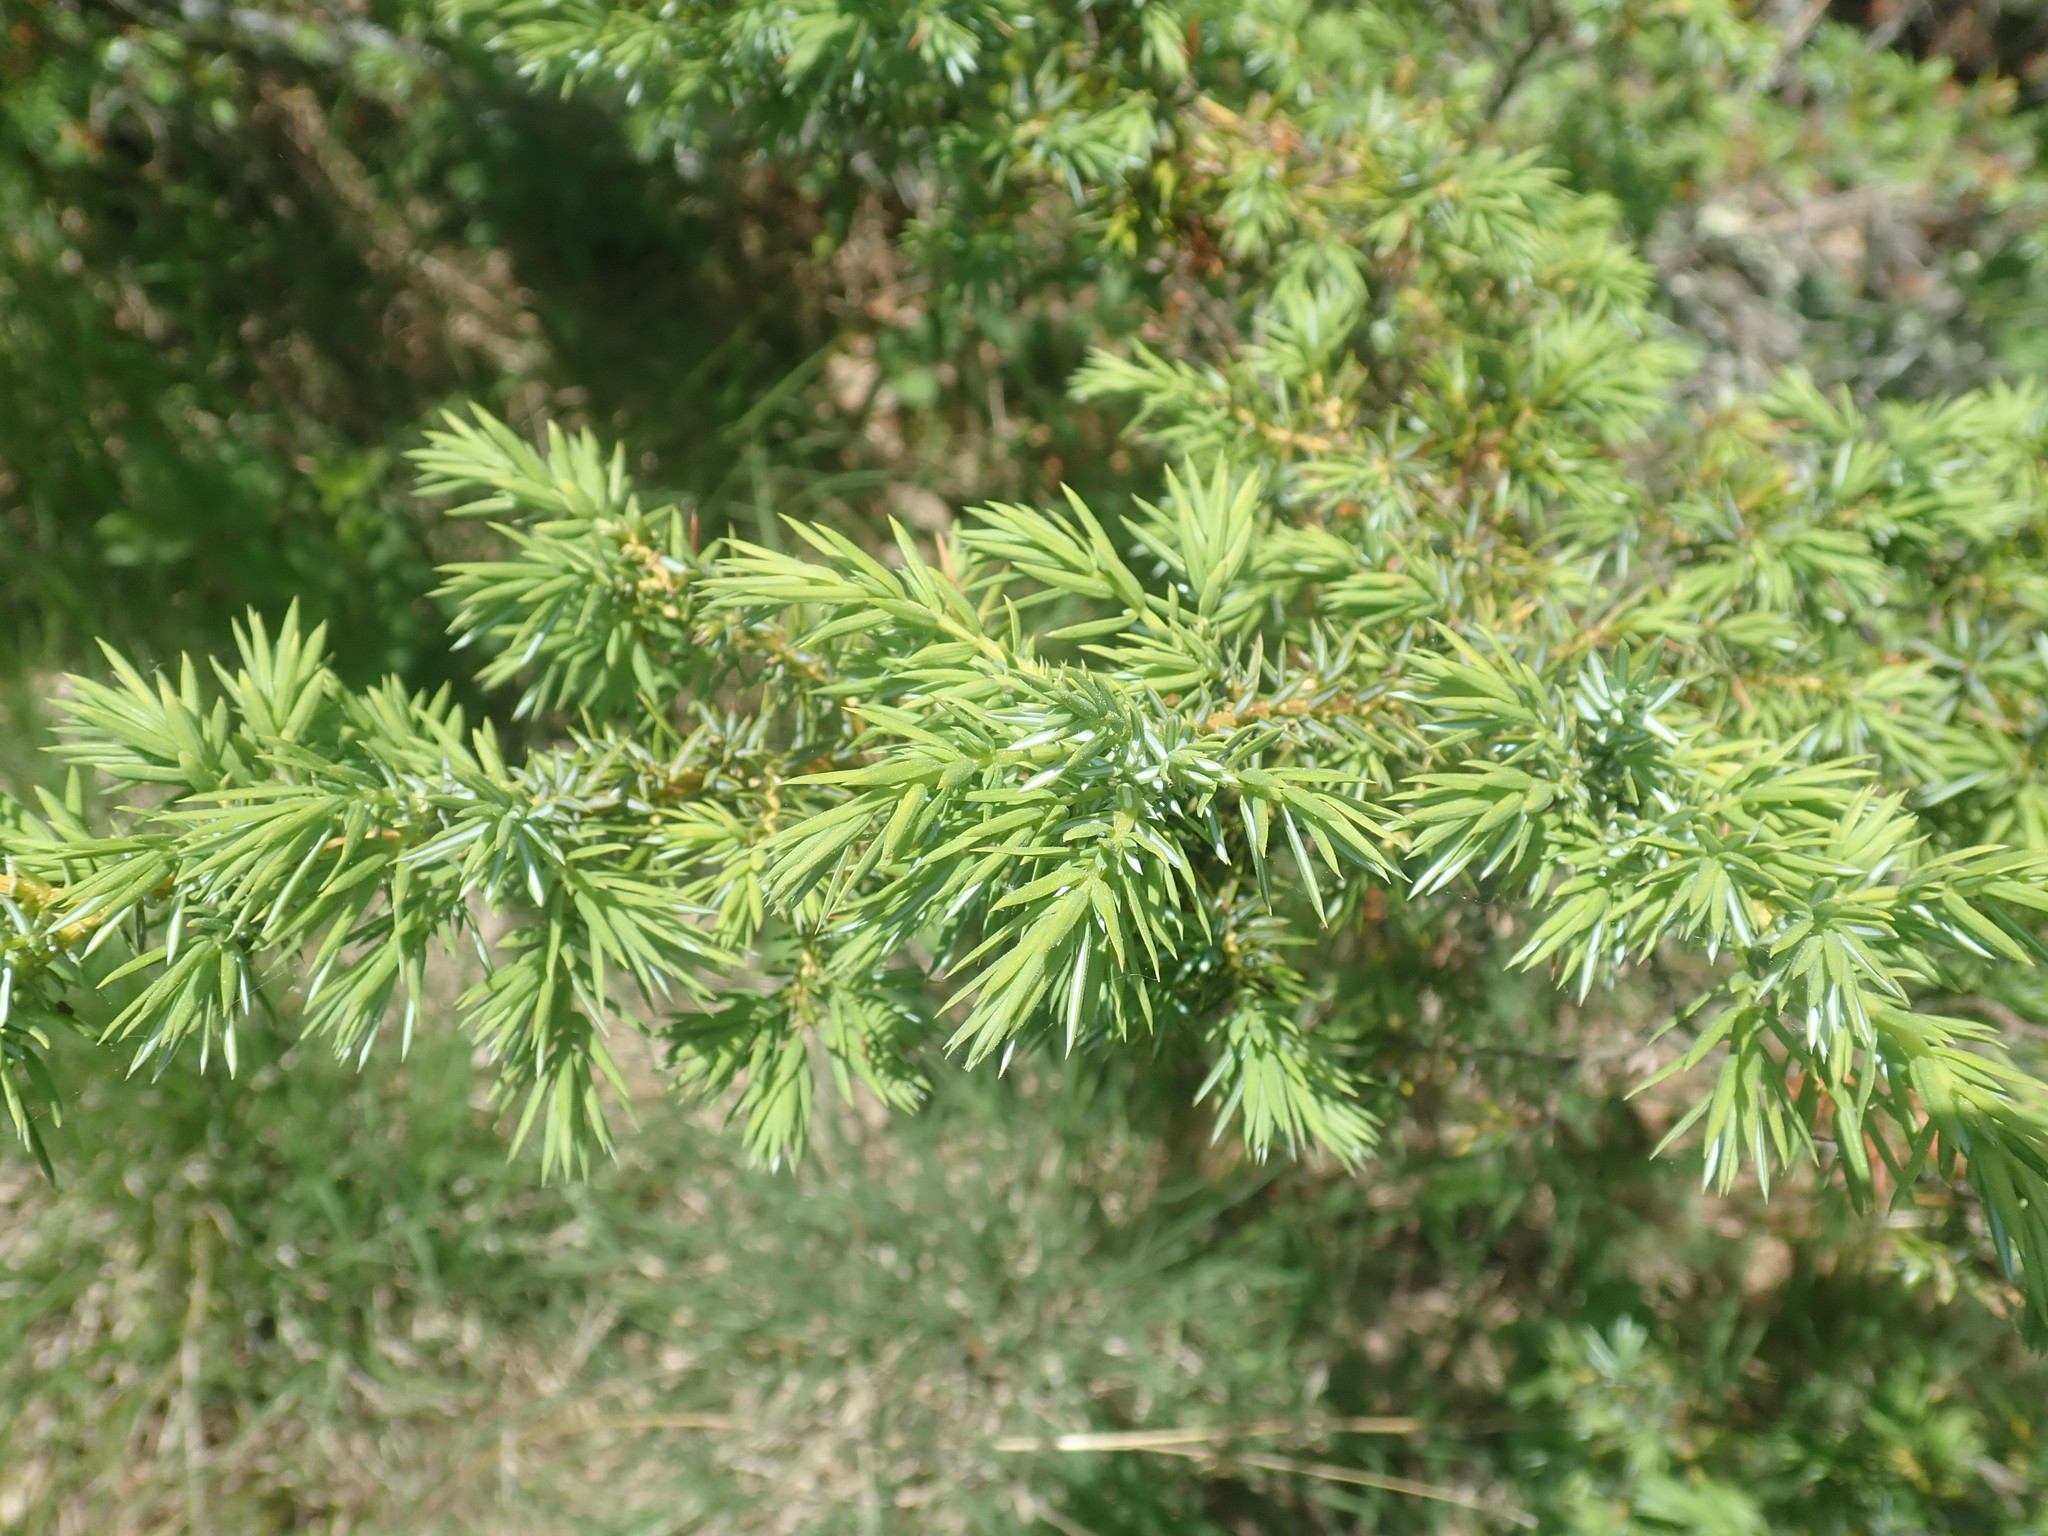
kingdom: Plantae
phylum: Tracheophyta
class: Pinopsida
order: Pinales
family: Cupressaceae
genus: Juniperus
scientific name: Juniperus communis
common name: Common juniper
